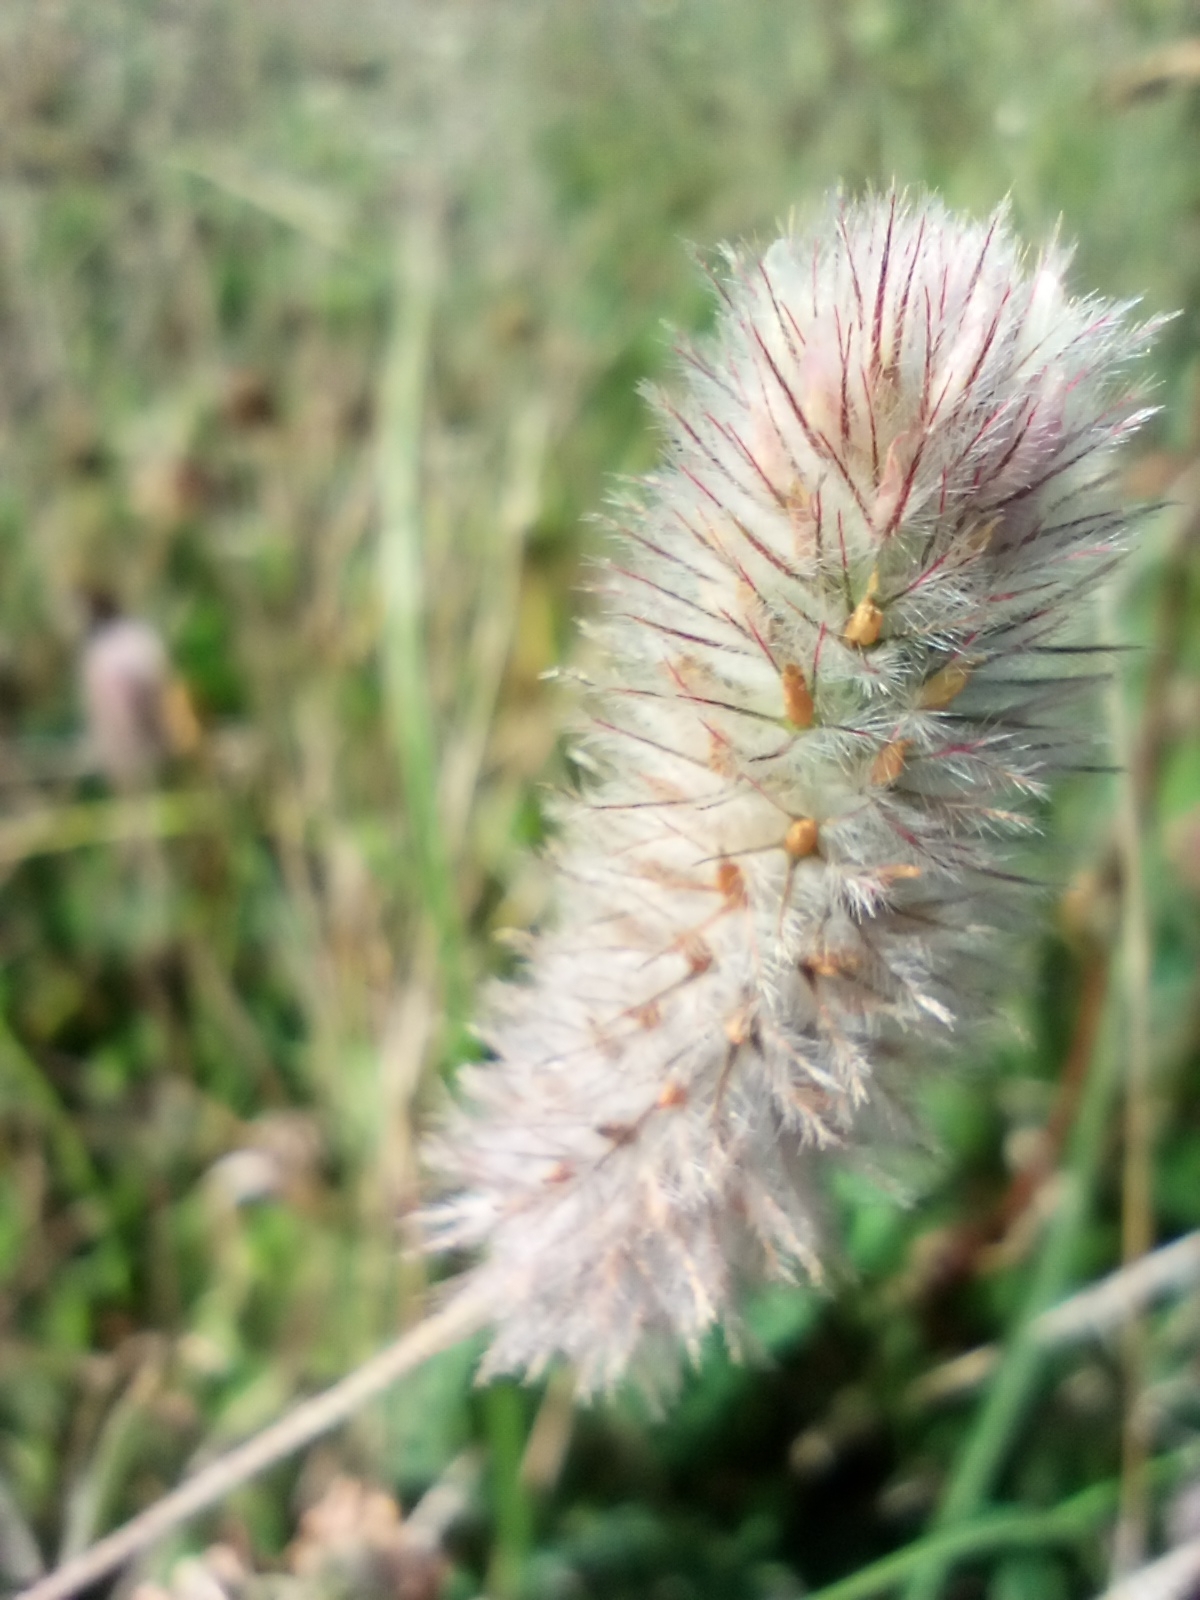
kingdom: Plantae
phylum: Tracheophyta
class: Magnoliopsida
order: Fabales
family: Fabaceae
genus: Trifolium
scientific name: Trifolium arvense
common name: Hare's-foot clover
